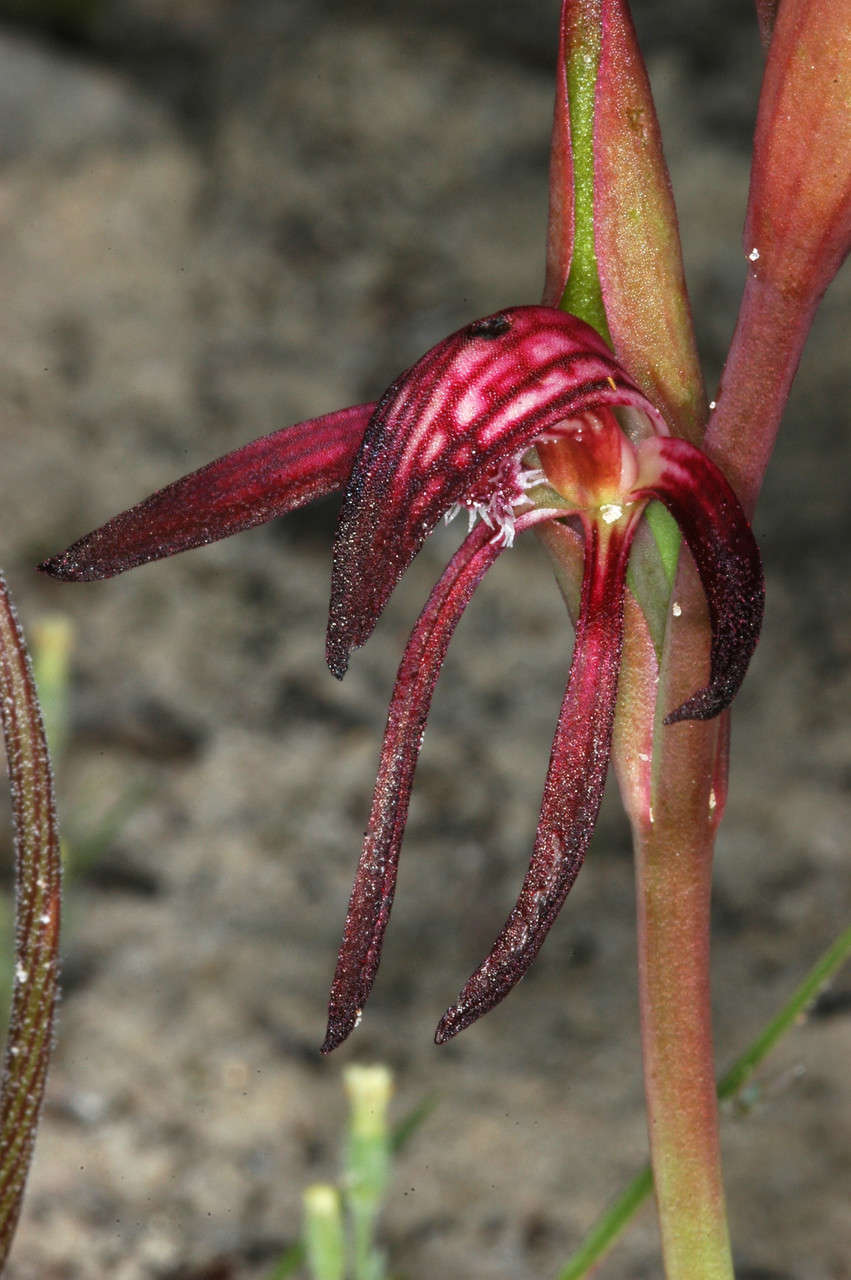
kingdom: Plantae
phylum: Tracheophyta
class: Liliopsida
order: Asparagales
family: Orchidaceae
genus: Pyrorchis
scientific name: Pyrorchis nigricans
